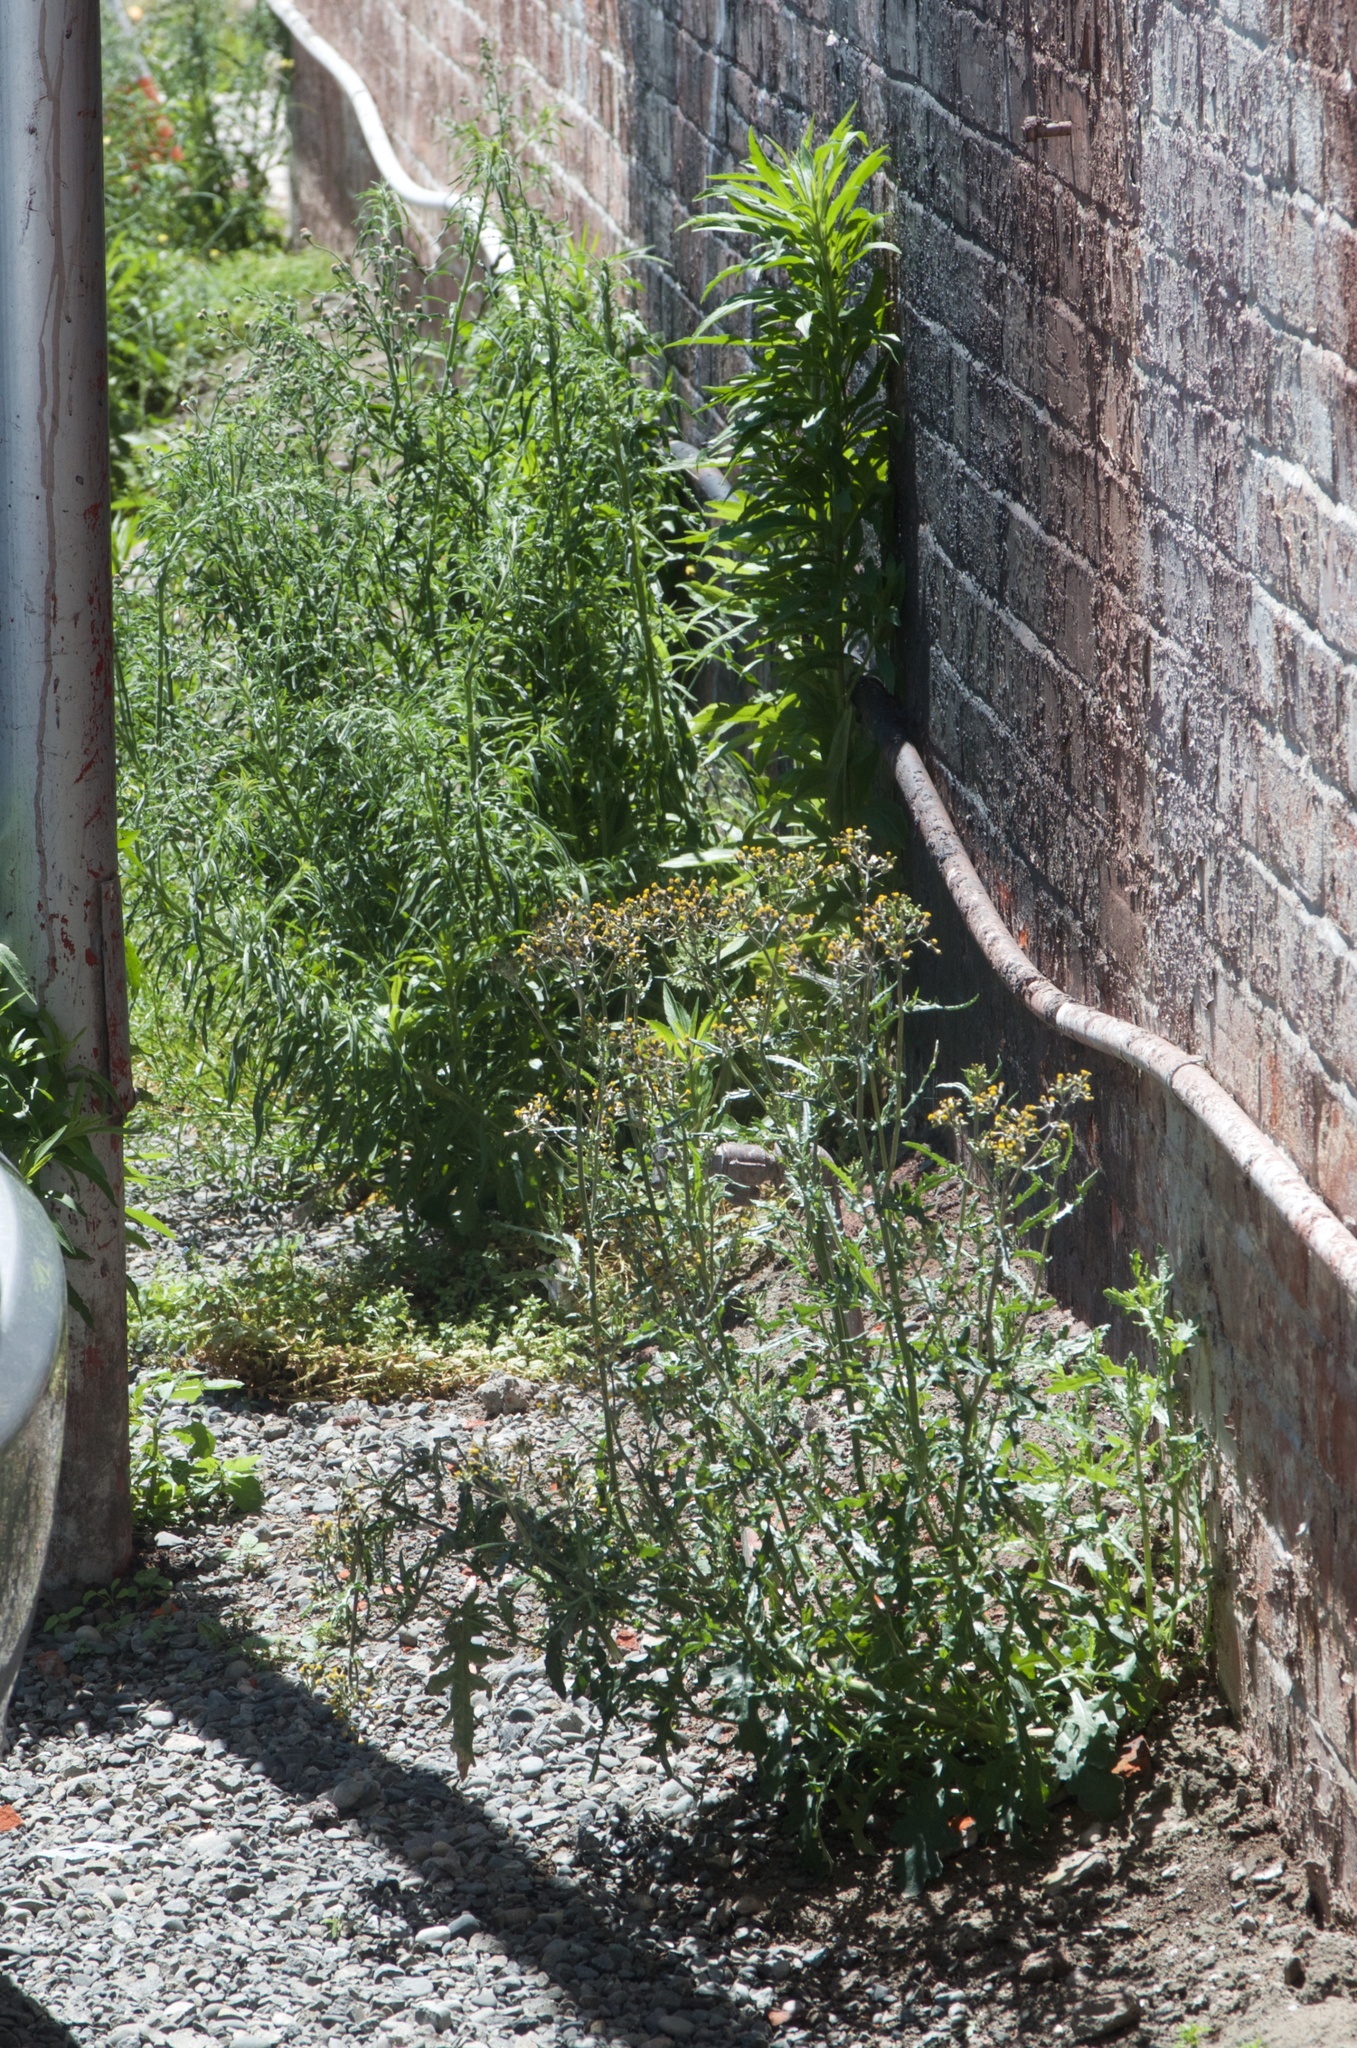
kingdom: Plantae
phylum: Tracheophyta
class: Magnoliopsida
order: Asterales
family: Asteraceae
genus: Senecio
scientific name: Senecio glomeratus
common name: Cutleaf burnweed
